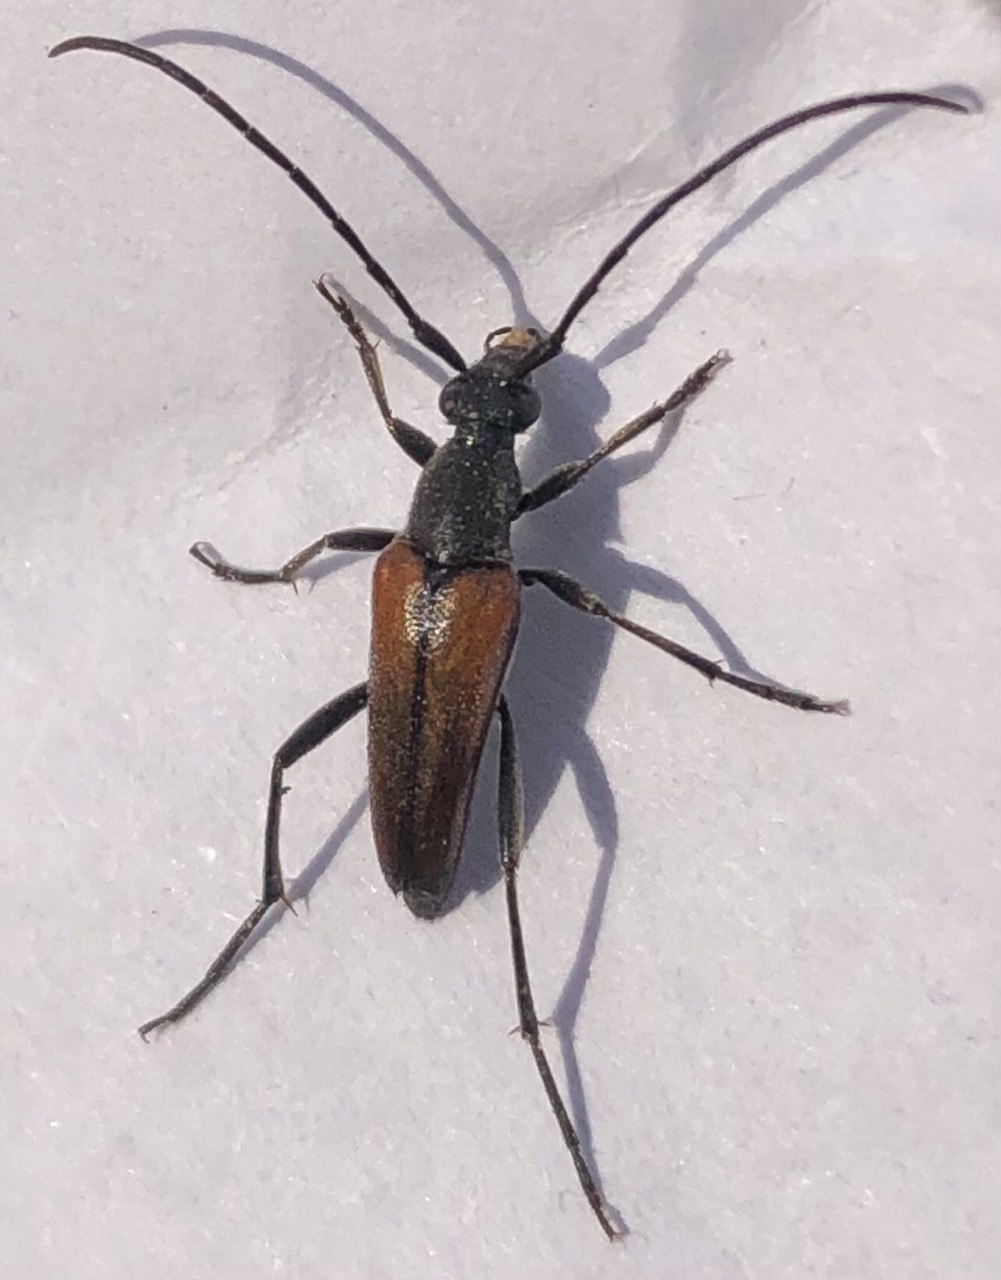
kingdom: Animalia
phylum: Arthropoda
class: Insecta
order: Coleoptera
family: Cerambycidae
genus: Stenurella
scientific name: Stenurella melanura
